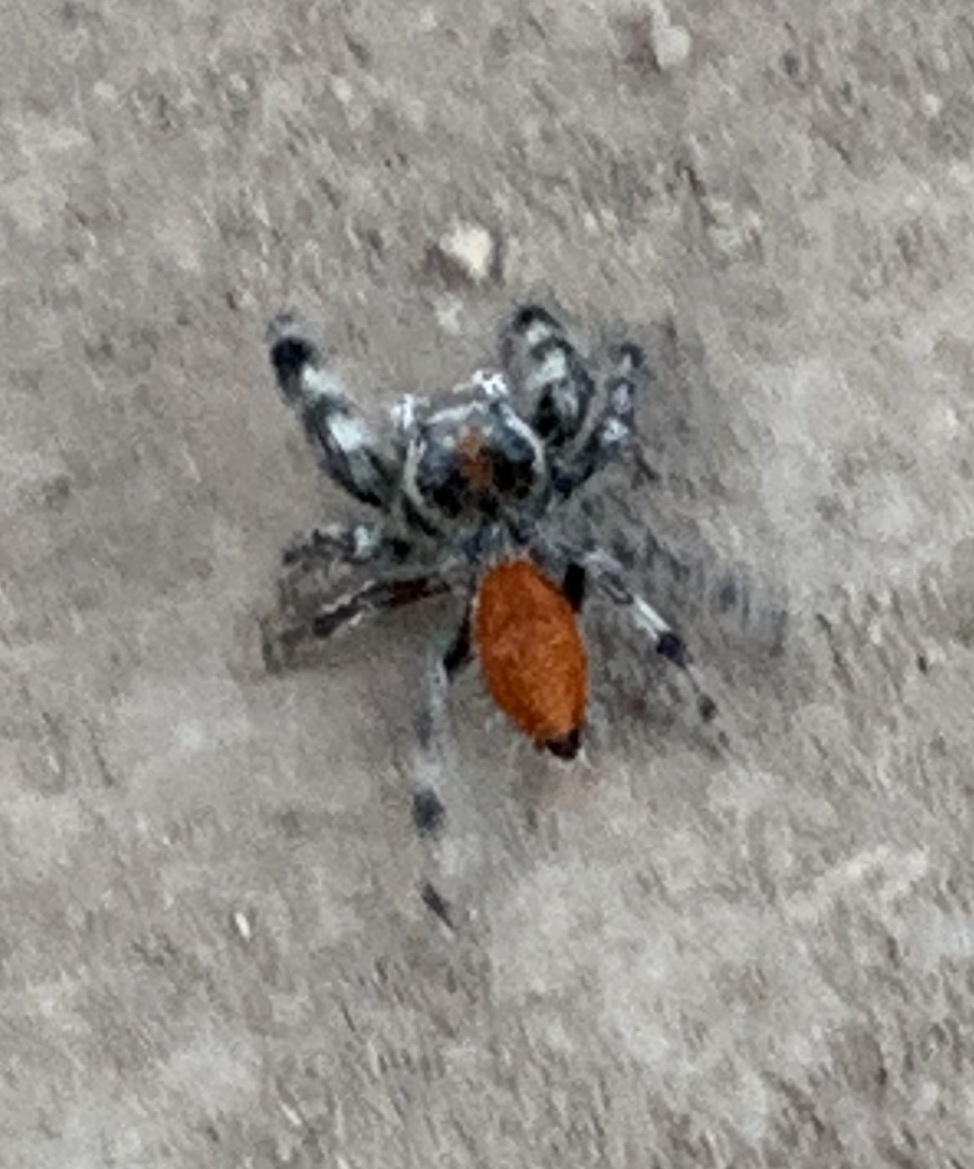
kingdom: Animalia
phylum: Arthropoda
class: Arachnida
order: Araneae
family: Salticidae
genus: Phidippus
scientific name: Phidippus adumbratus
